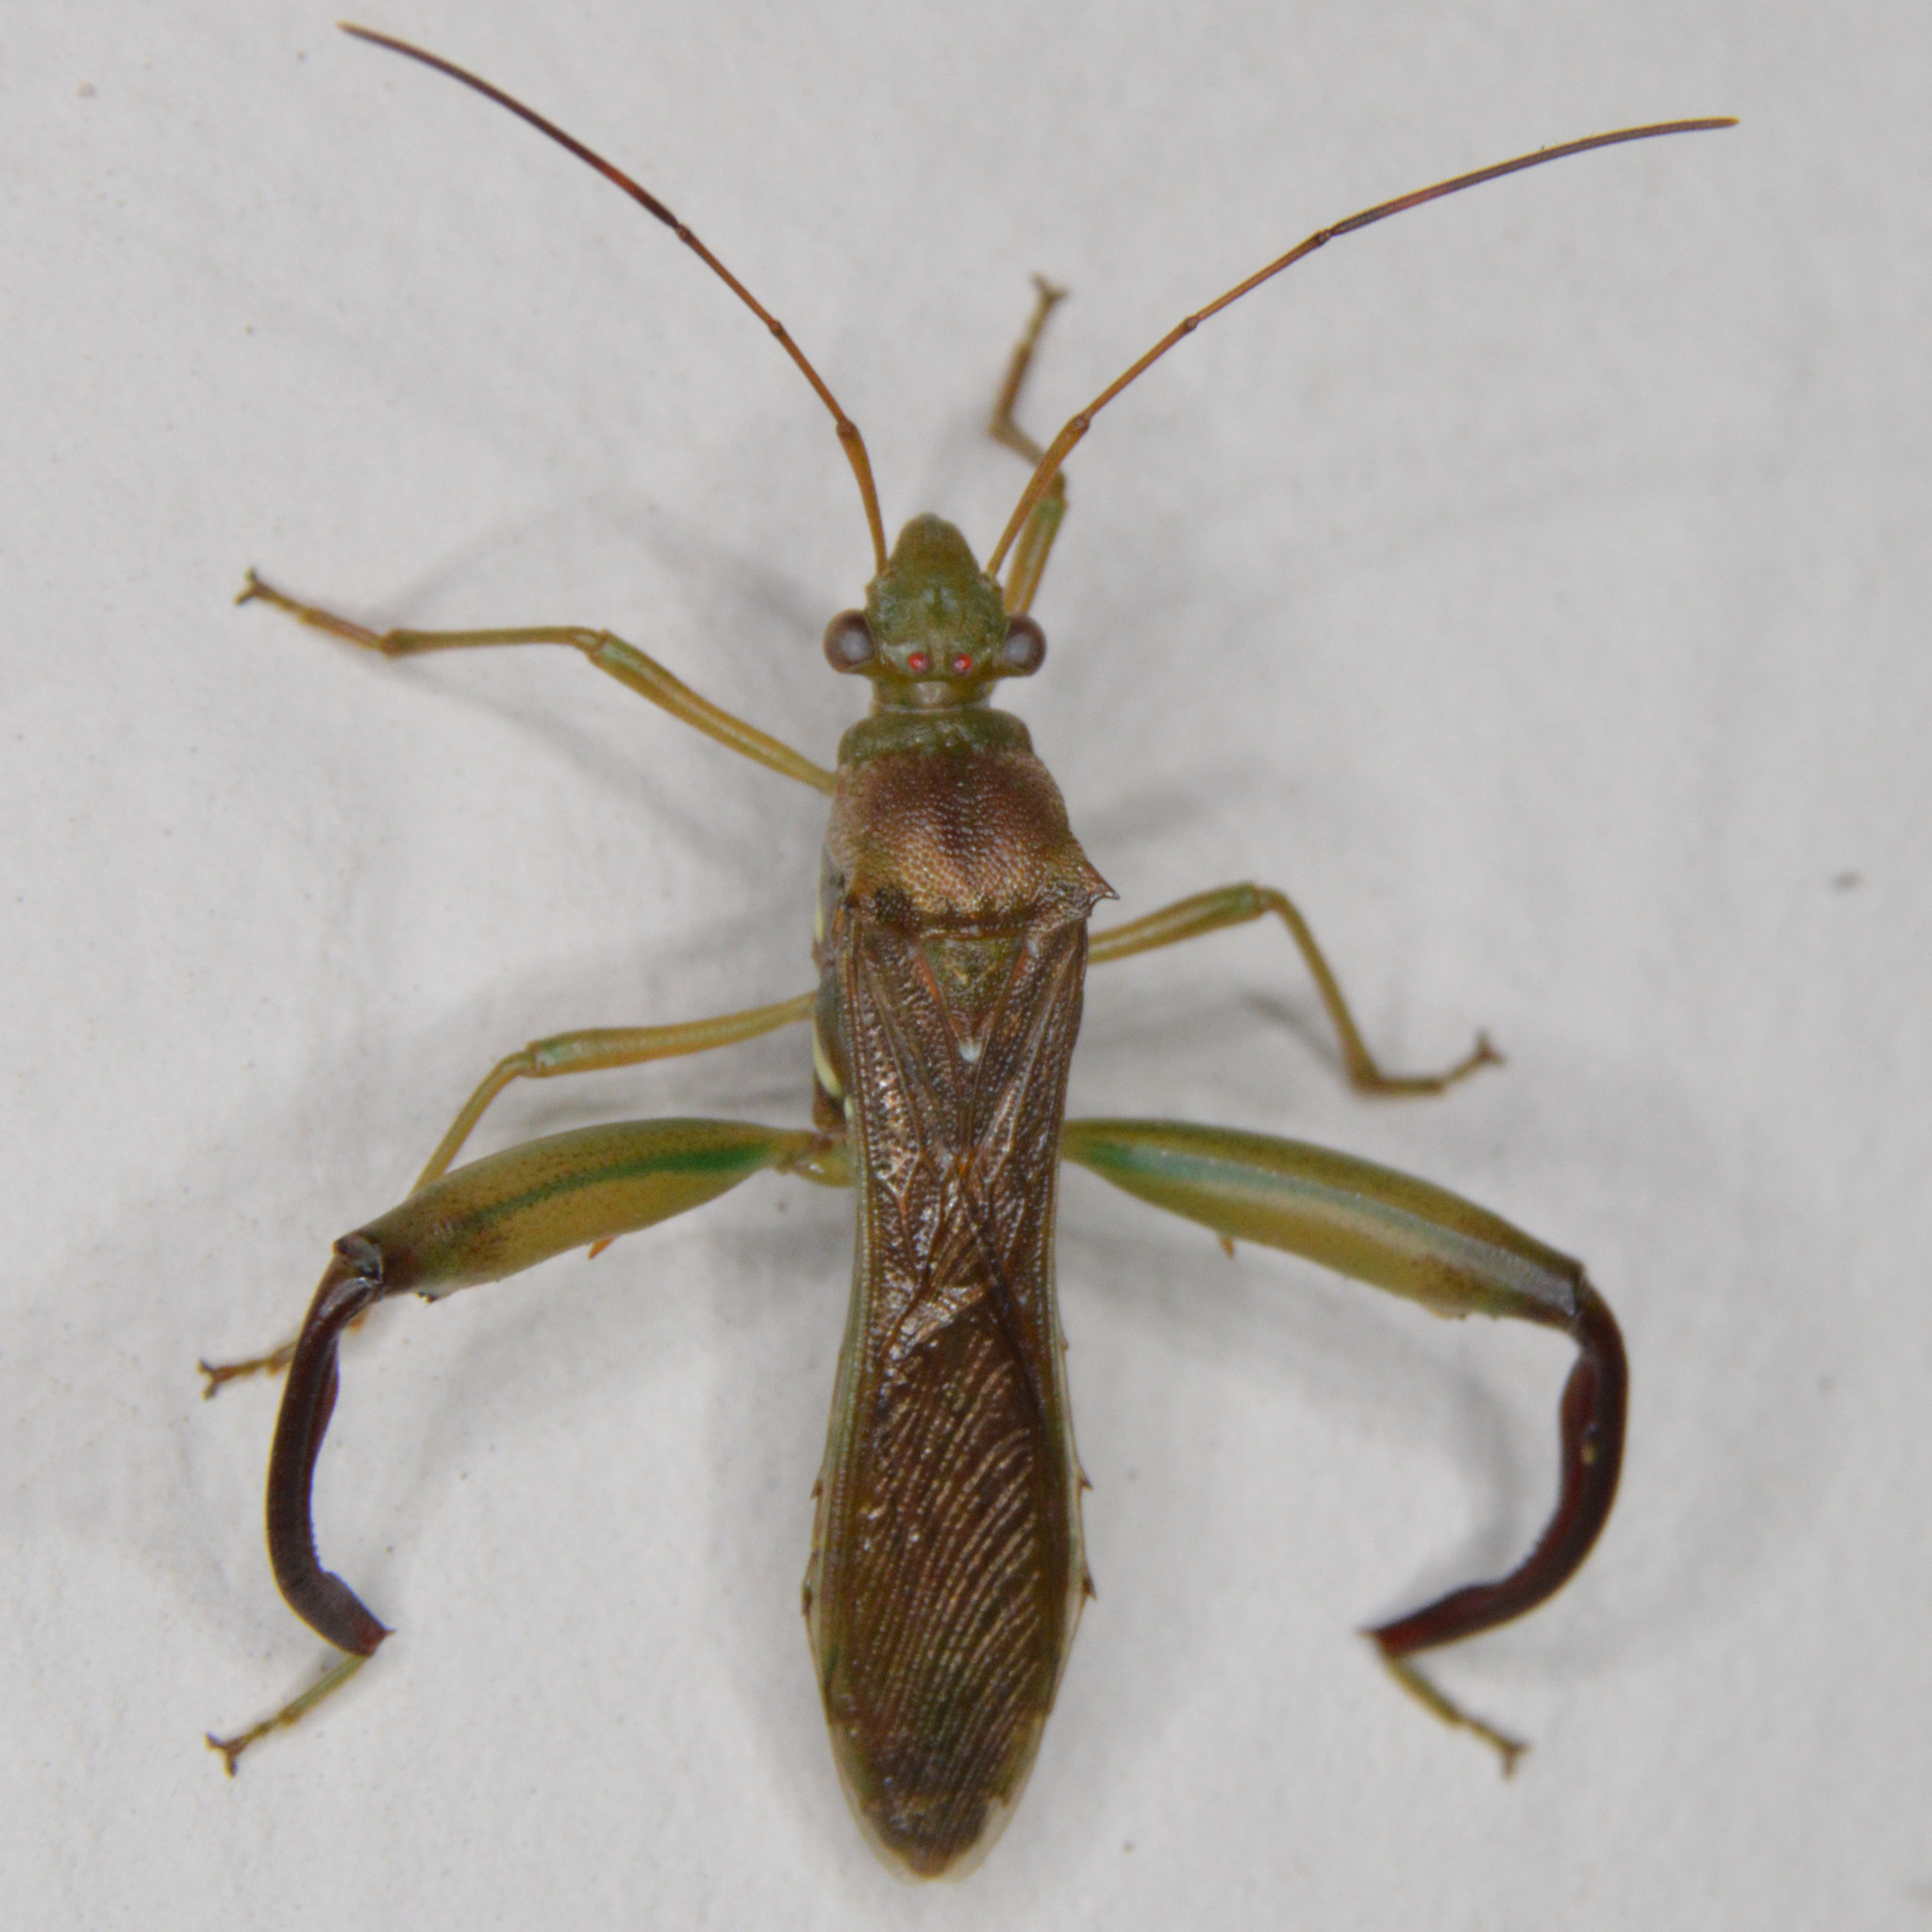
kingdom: Animalia
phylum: Arthropoda
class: Insecta
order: Hemiptera
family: Alydidae
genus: Hyalymenus
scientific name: Hyalymenus tarsatus
